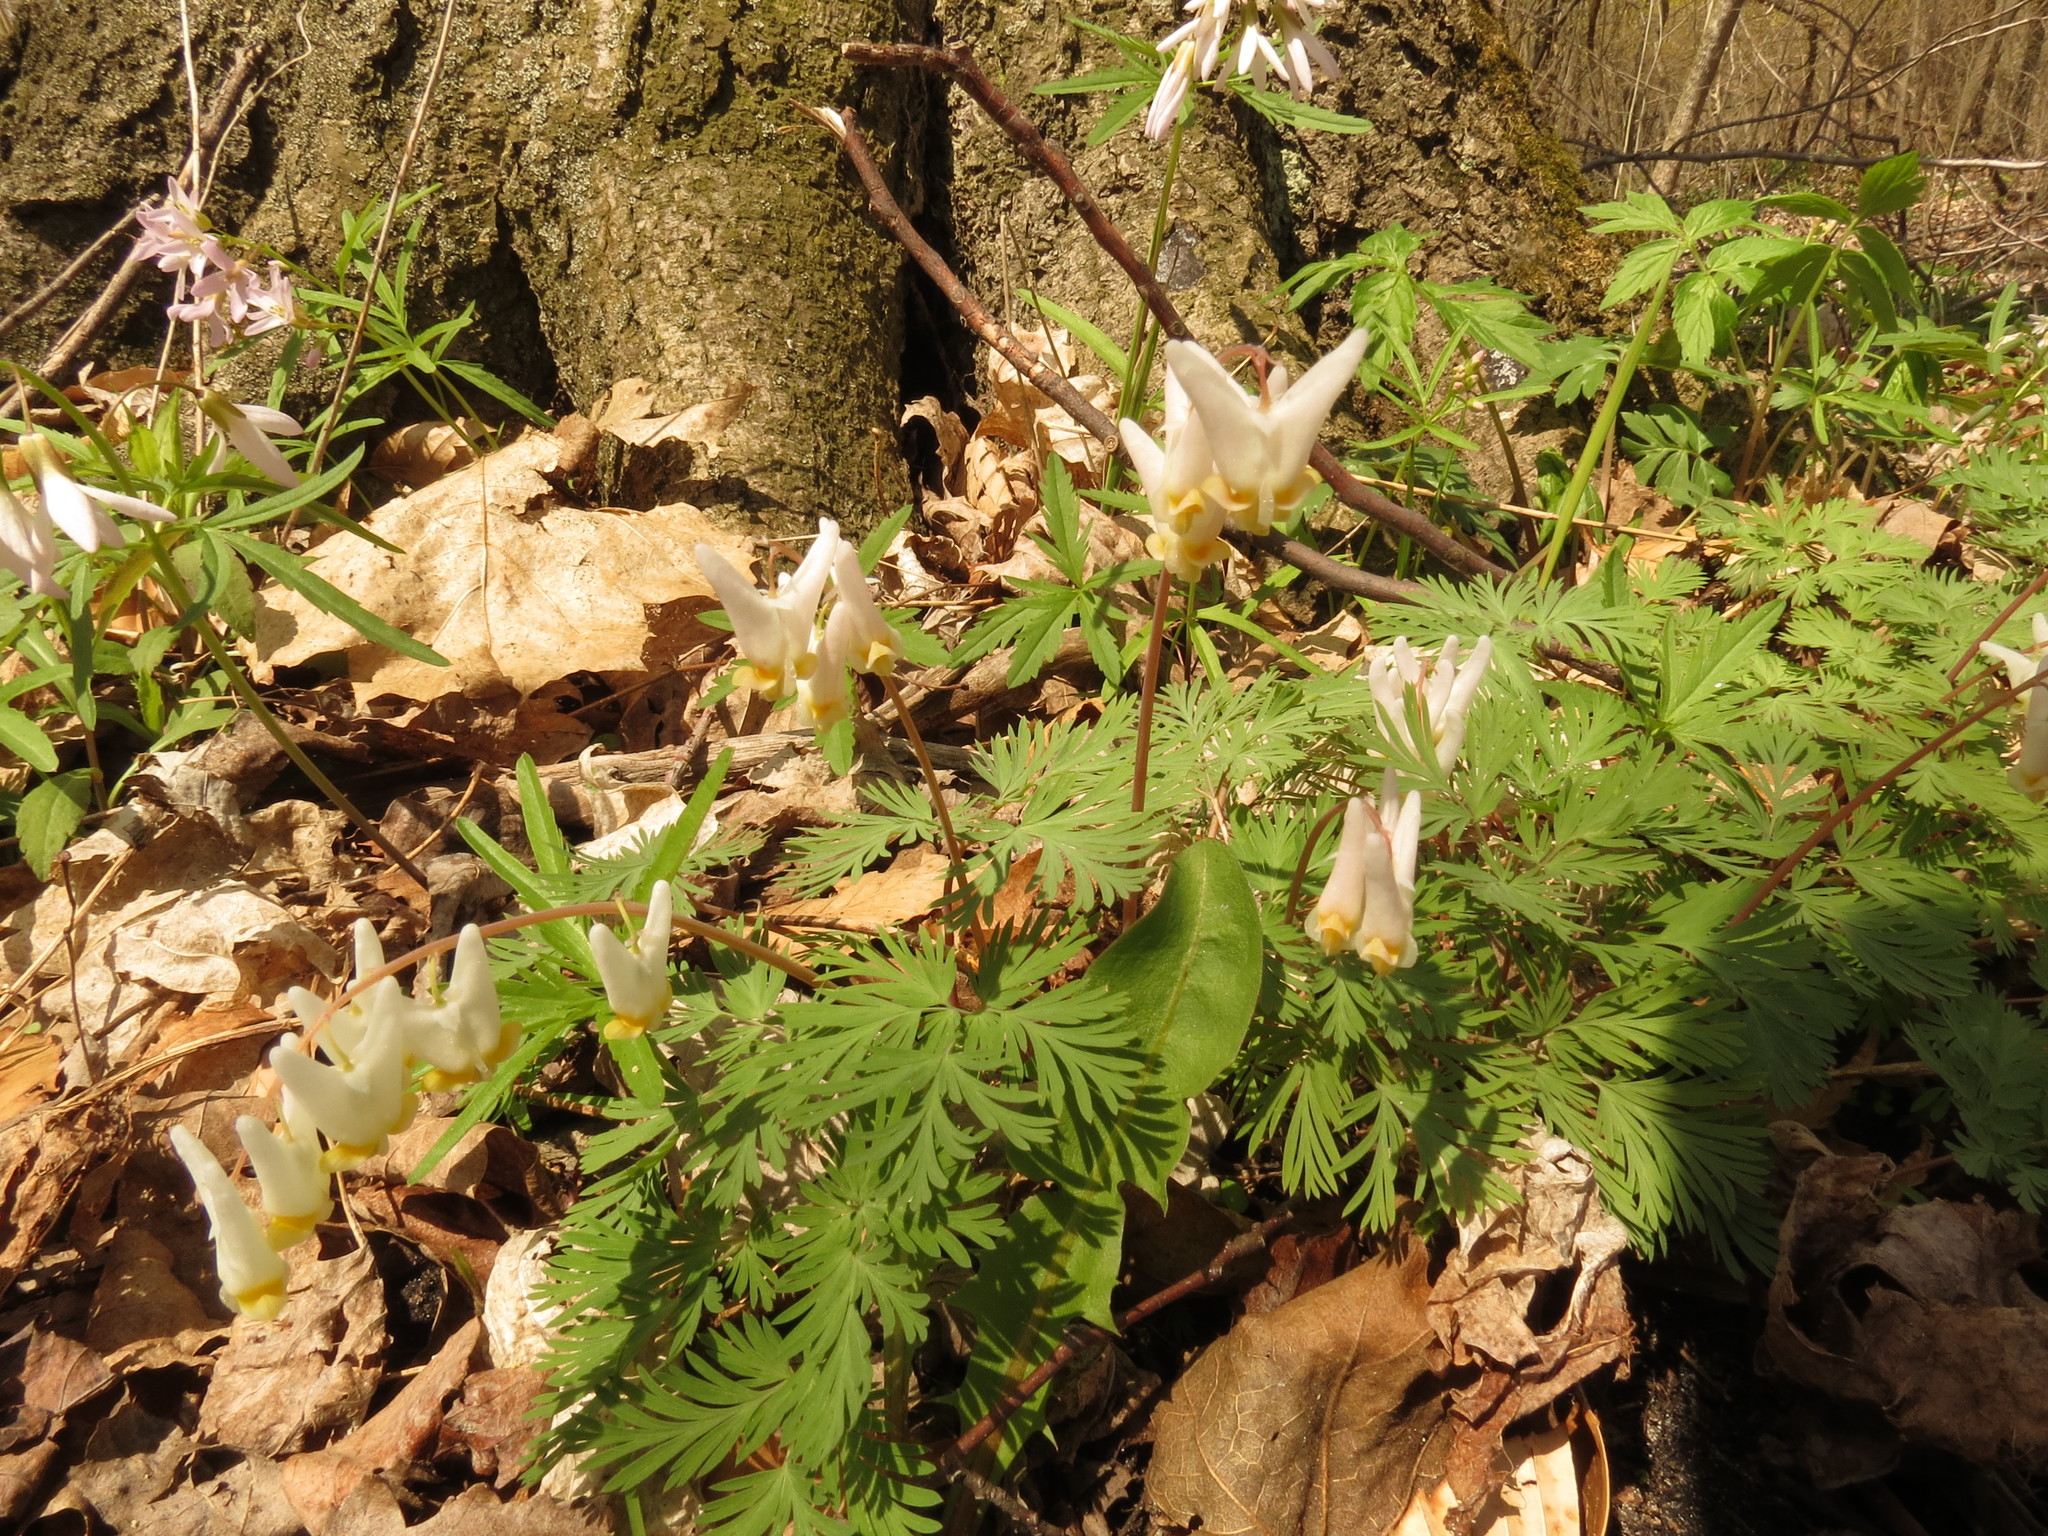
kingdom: Plantae
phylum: Tracheophyta
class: Magnoliopsida
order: Ranunculales
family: Papaveraceae
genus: Dicentra
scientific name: Dicentra cucullaria
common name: Dutchman's breeches
